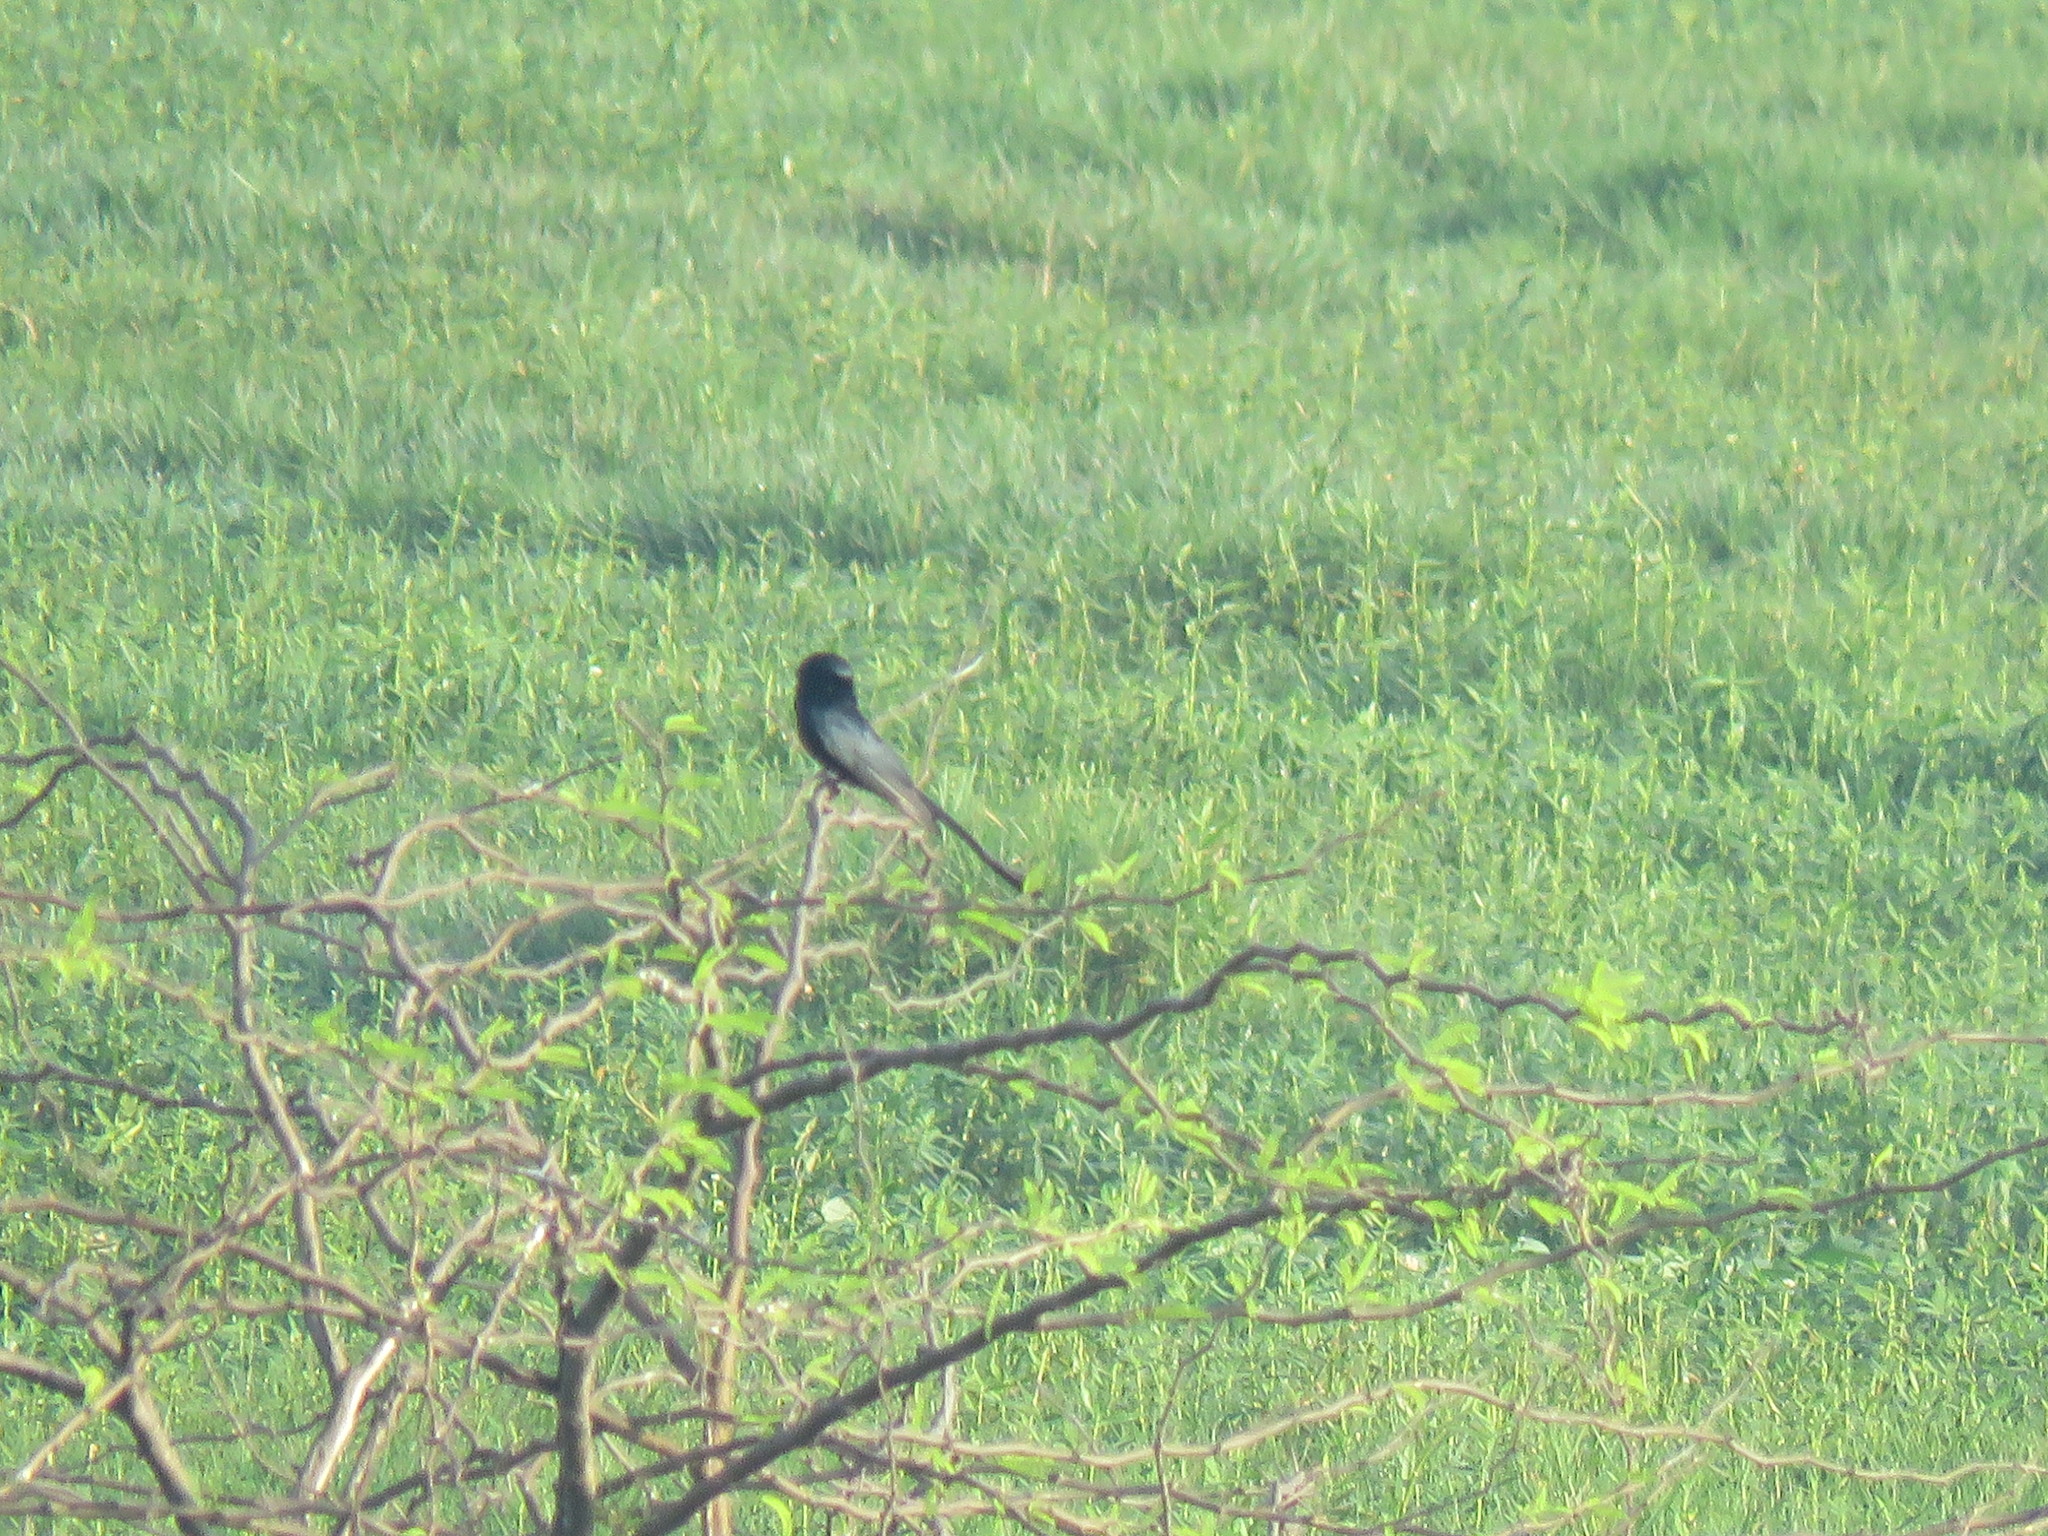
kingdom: Animalia
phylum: Chordata
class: Aves
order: Passeriformes
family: Dicruridae
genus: Dicrurus
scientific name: Dicrurus macrocercus
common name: Black drongo
